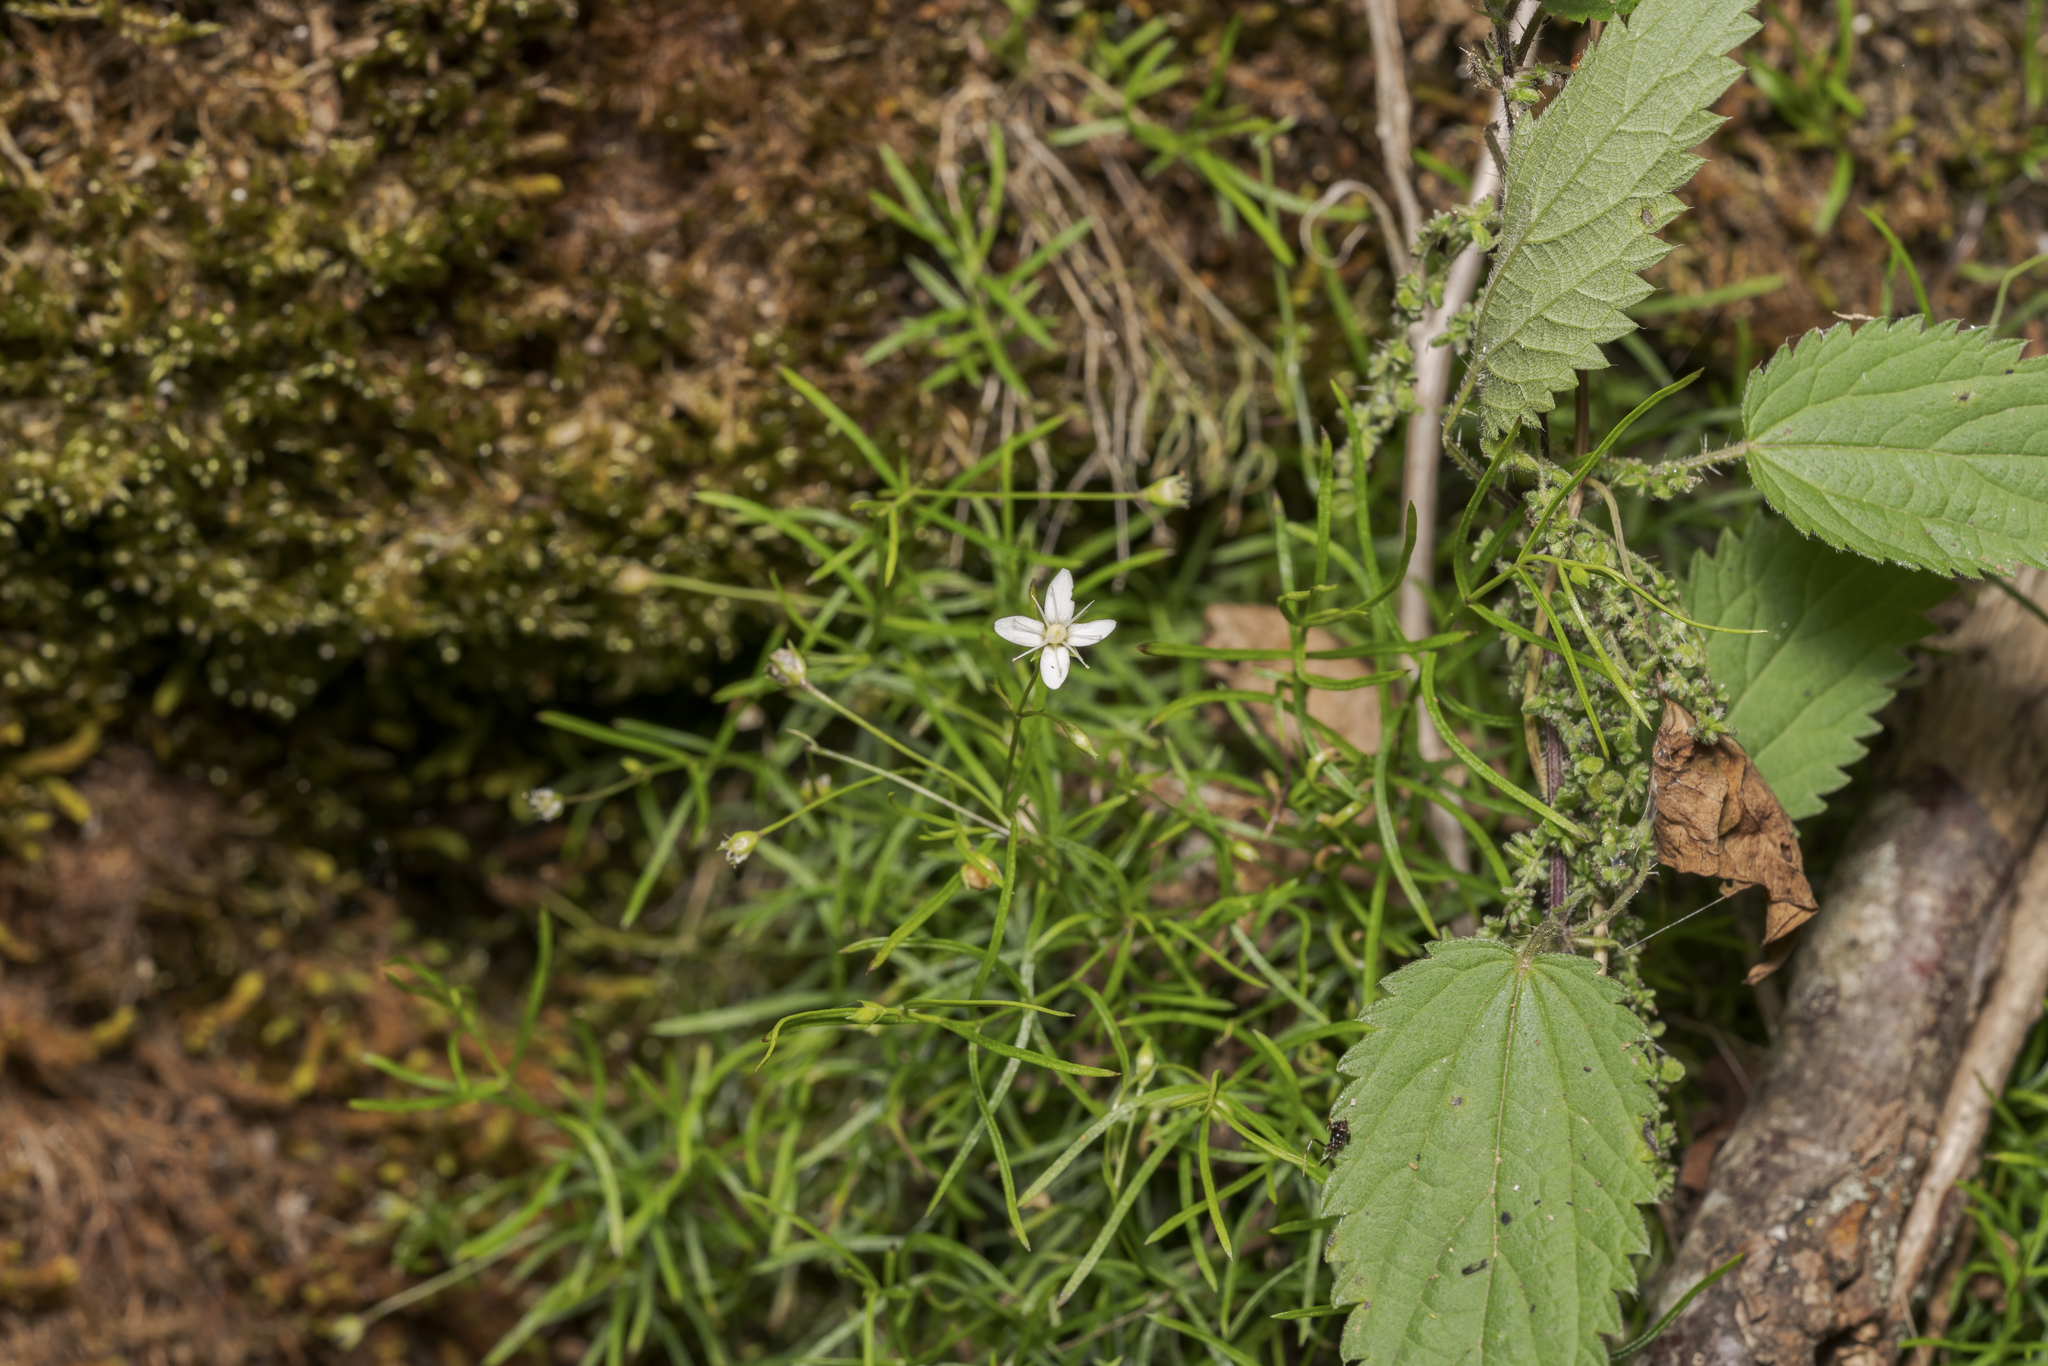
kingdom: Plantae
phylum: Tracheophyta
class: Magnoliopsida
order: Caryophyllales
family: Caryophyllaceae
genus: Moehringia
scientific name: Moehringia muscosa
